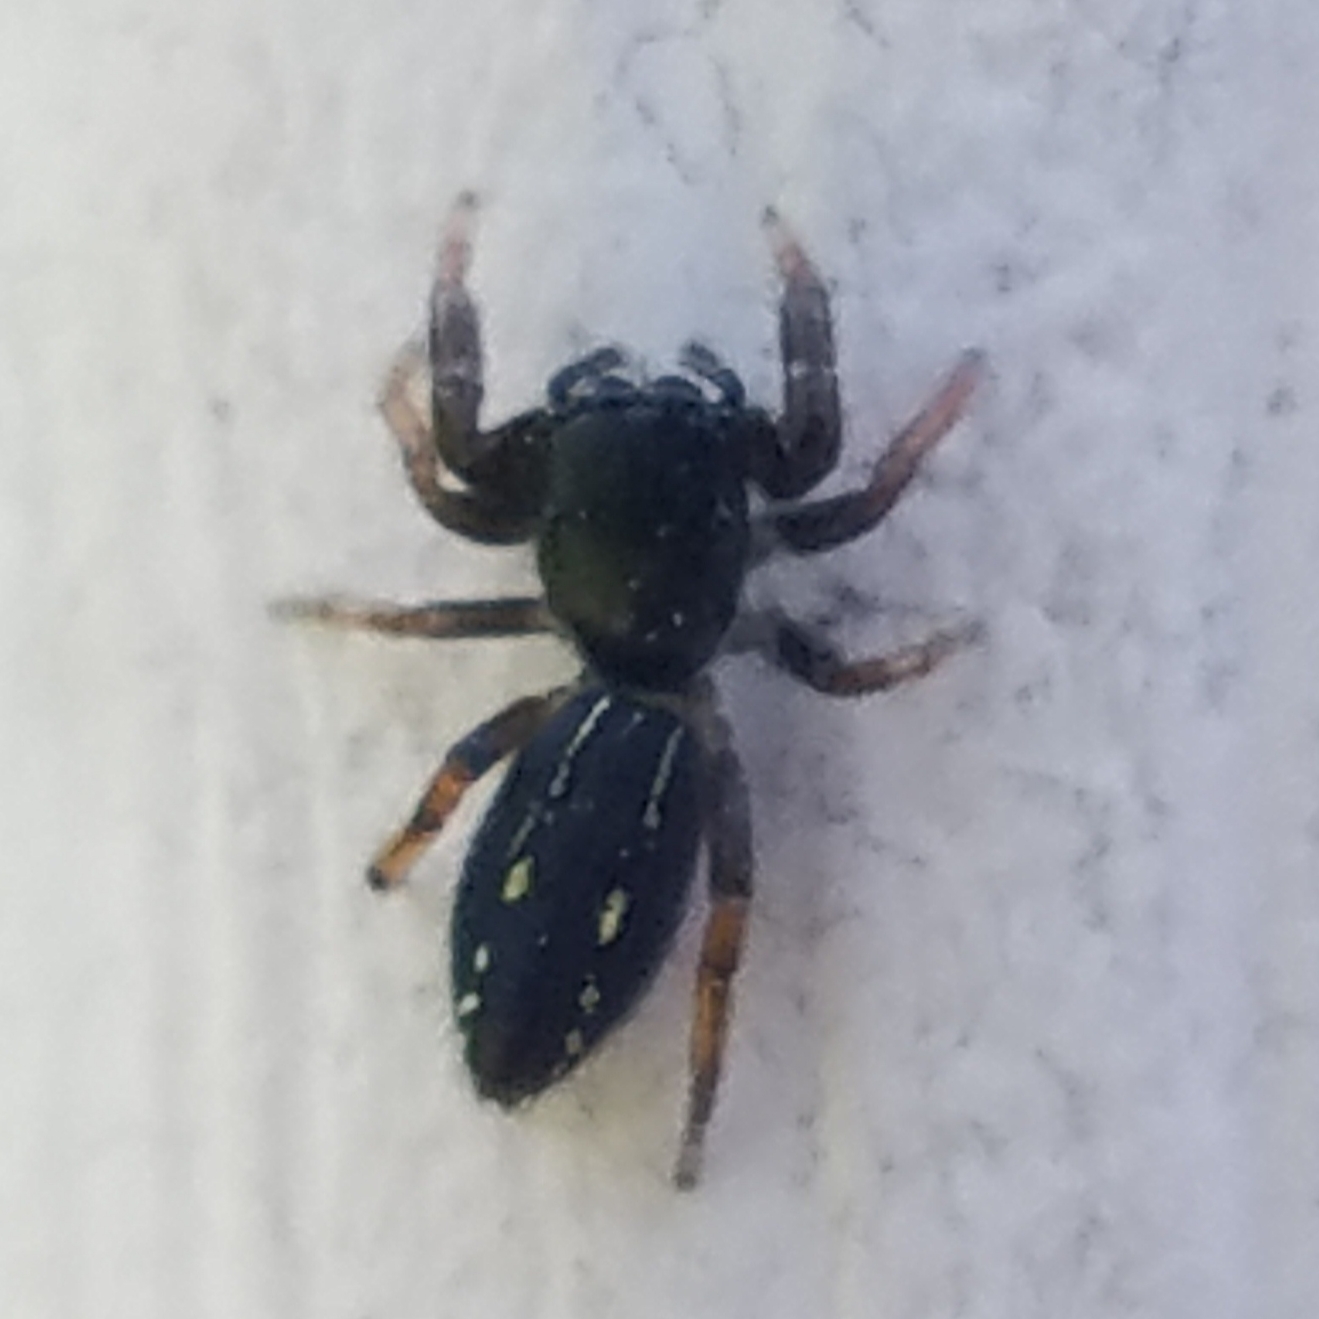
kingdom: Animalia
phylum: Arthropoda
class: Arachnida
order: Araneae
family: Salticidae
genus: Metacyrba
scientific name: Metacyrba taeniola
